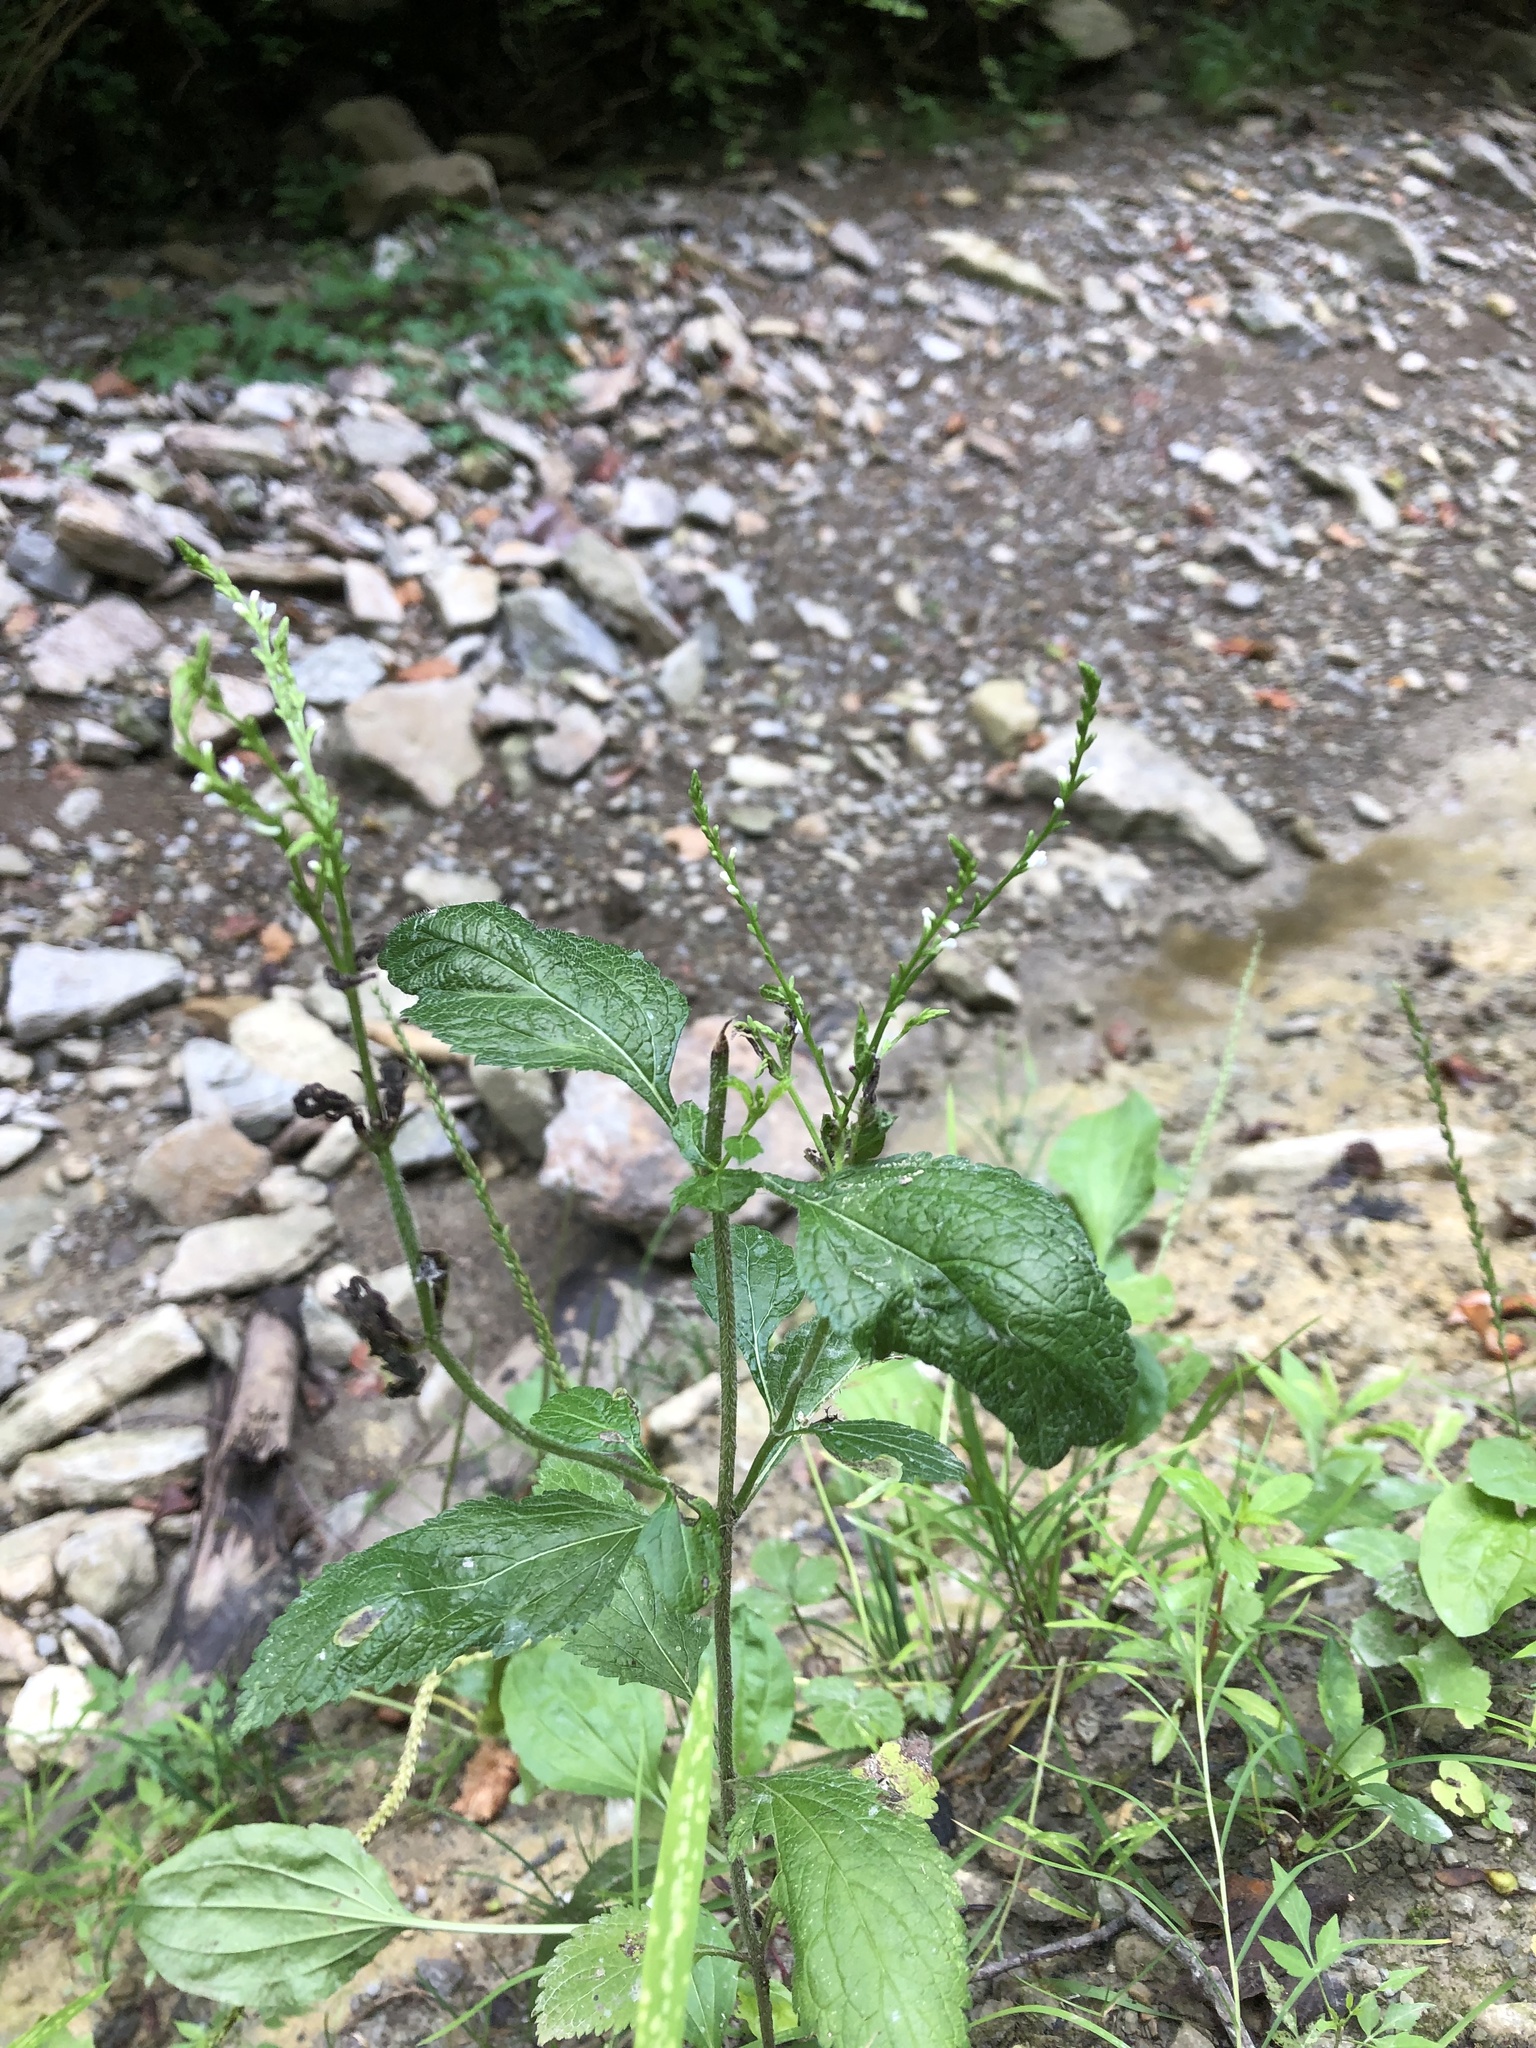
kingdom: Plantae
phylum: Tracheophyta
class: Magnoliopsida
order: Lamiales
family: Verbenaceae
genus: Verbena
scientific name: Verbena urticifolia
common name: Nettle-leaved vervain
